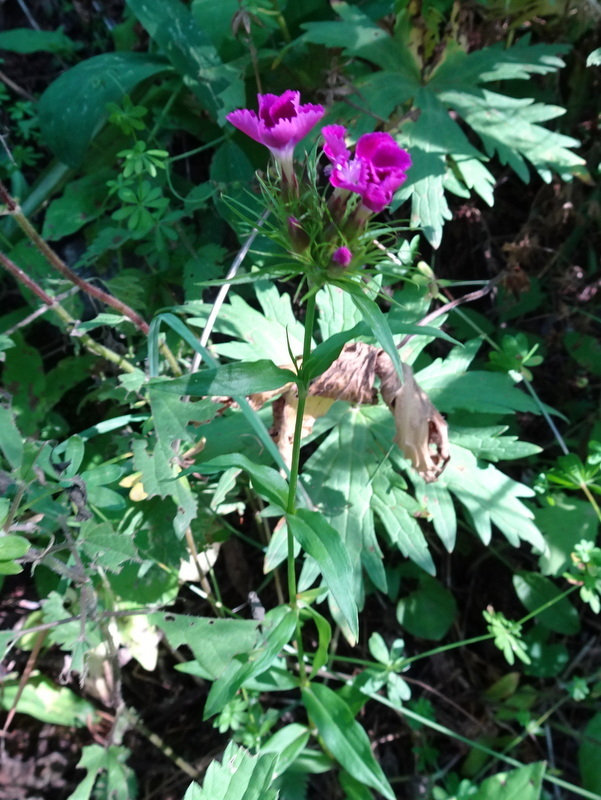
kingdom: Plantae
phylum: Tracheophyta
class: Magnoliopsida
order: Caryophyllales
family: Caryophyllaceae
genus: Dianthus
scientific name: Dianthus barbatus
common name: Sweet-william
